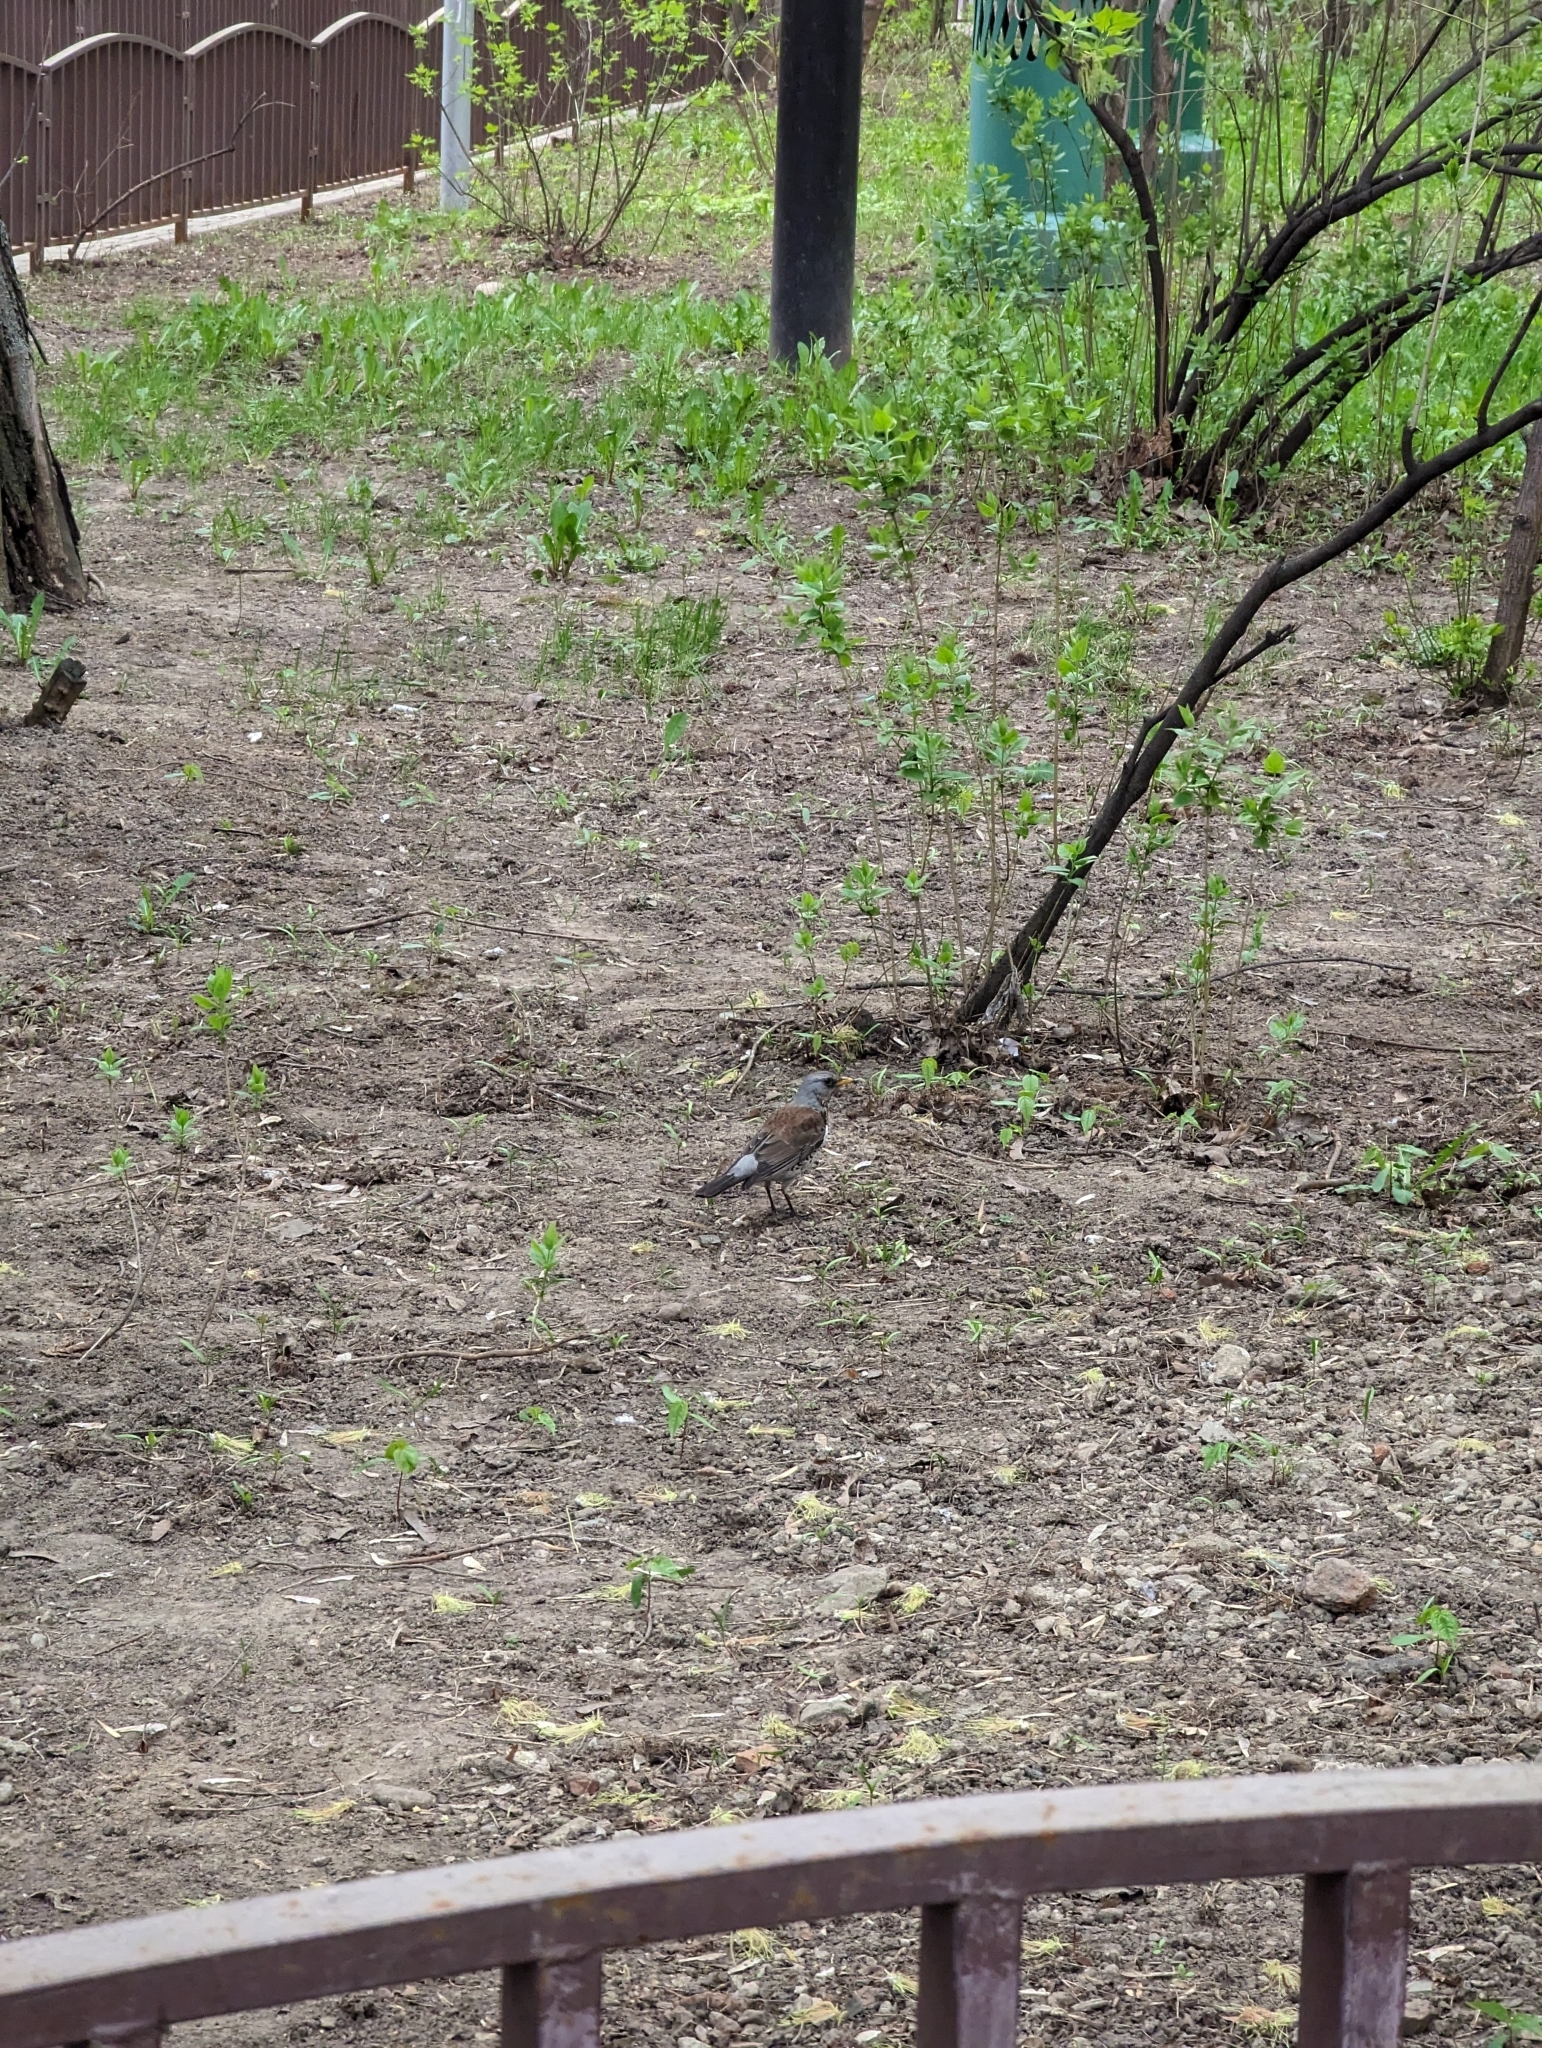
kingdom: Animalia
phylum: Chordata
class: Aves
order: Passeriformes
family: Turdidae
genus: Turdus
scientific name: Turdus pilaris
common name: Fieldfare
